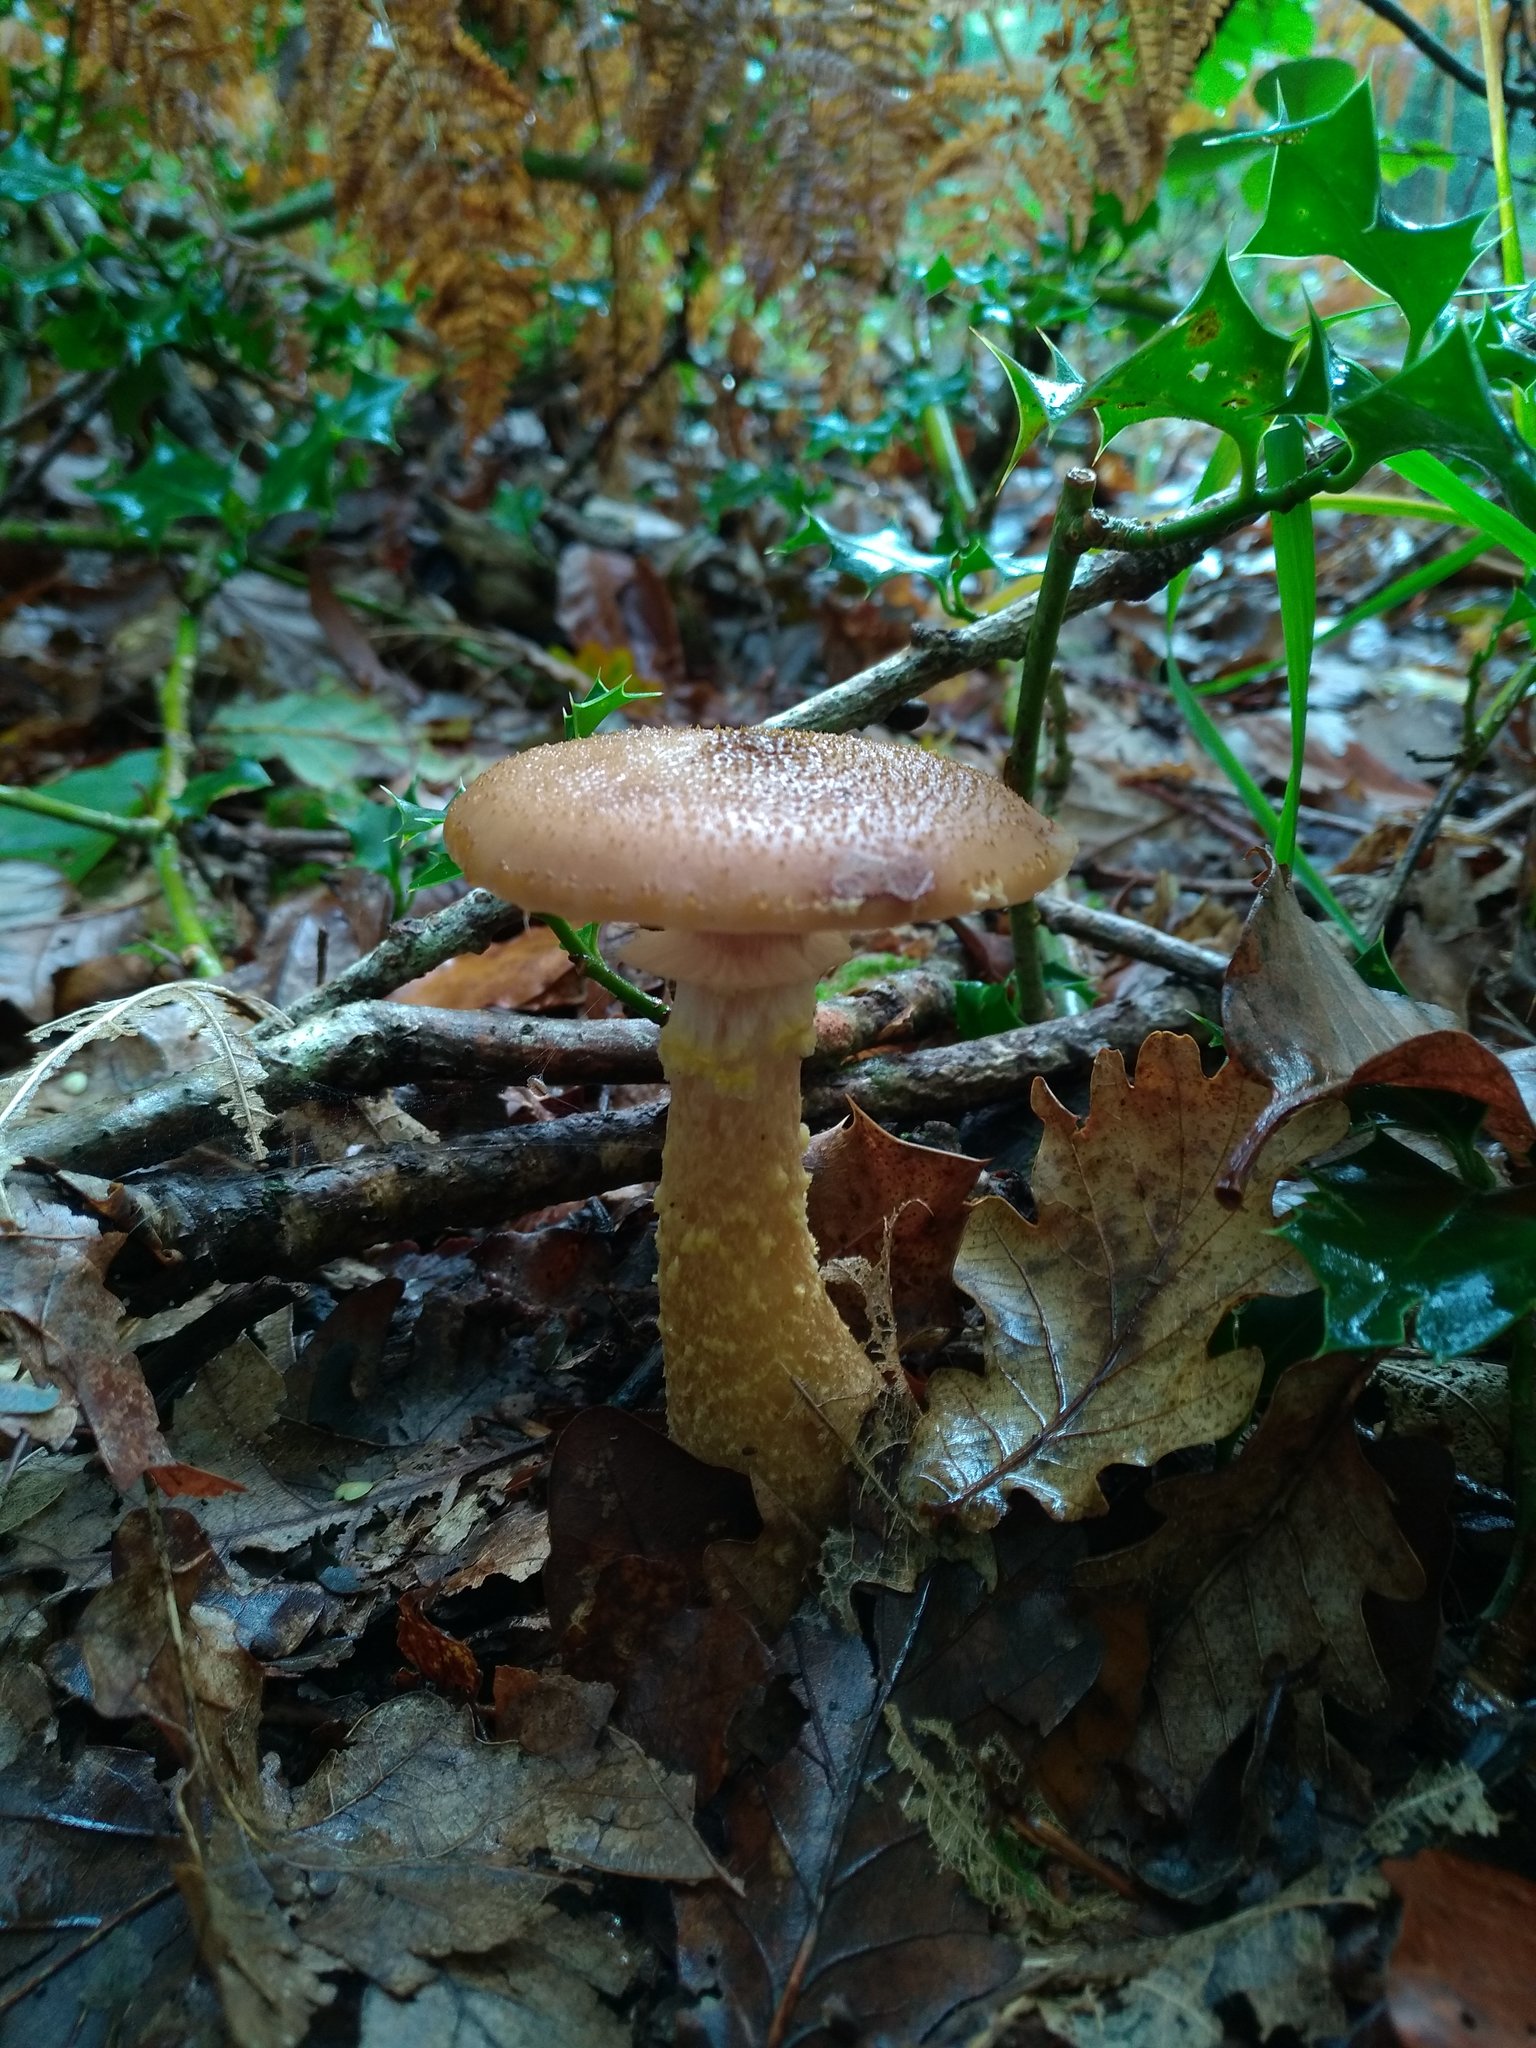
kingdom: Fungi
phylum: Basidiomycota
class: Agaricomycetes
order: Agaricales
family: Physalacriaceae
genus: Armillaria
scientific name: Armillaria gallica
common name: Bulbous honey fungus
